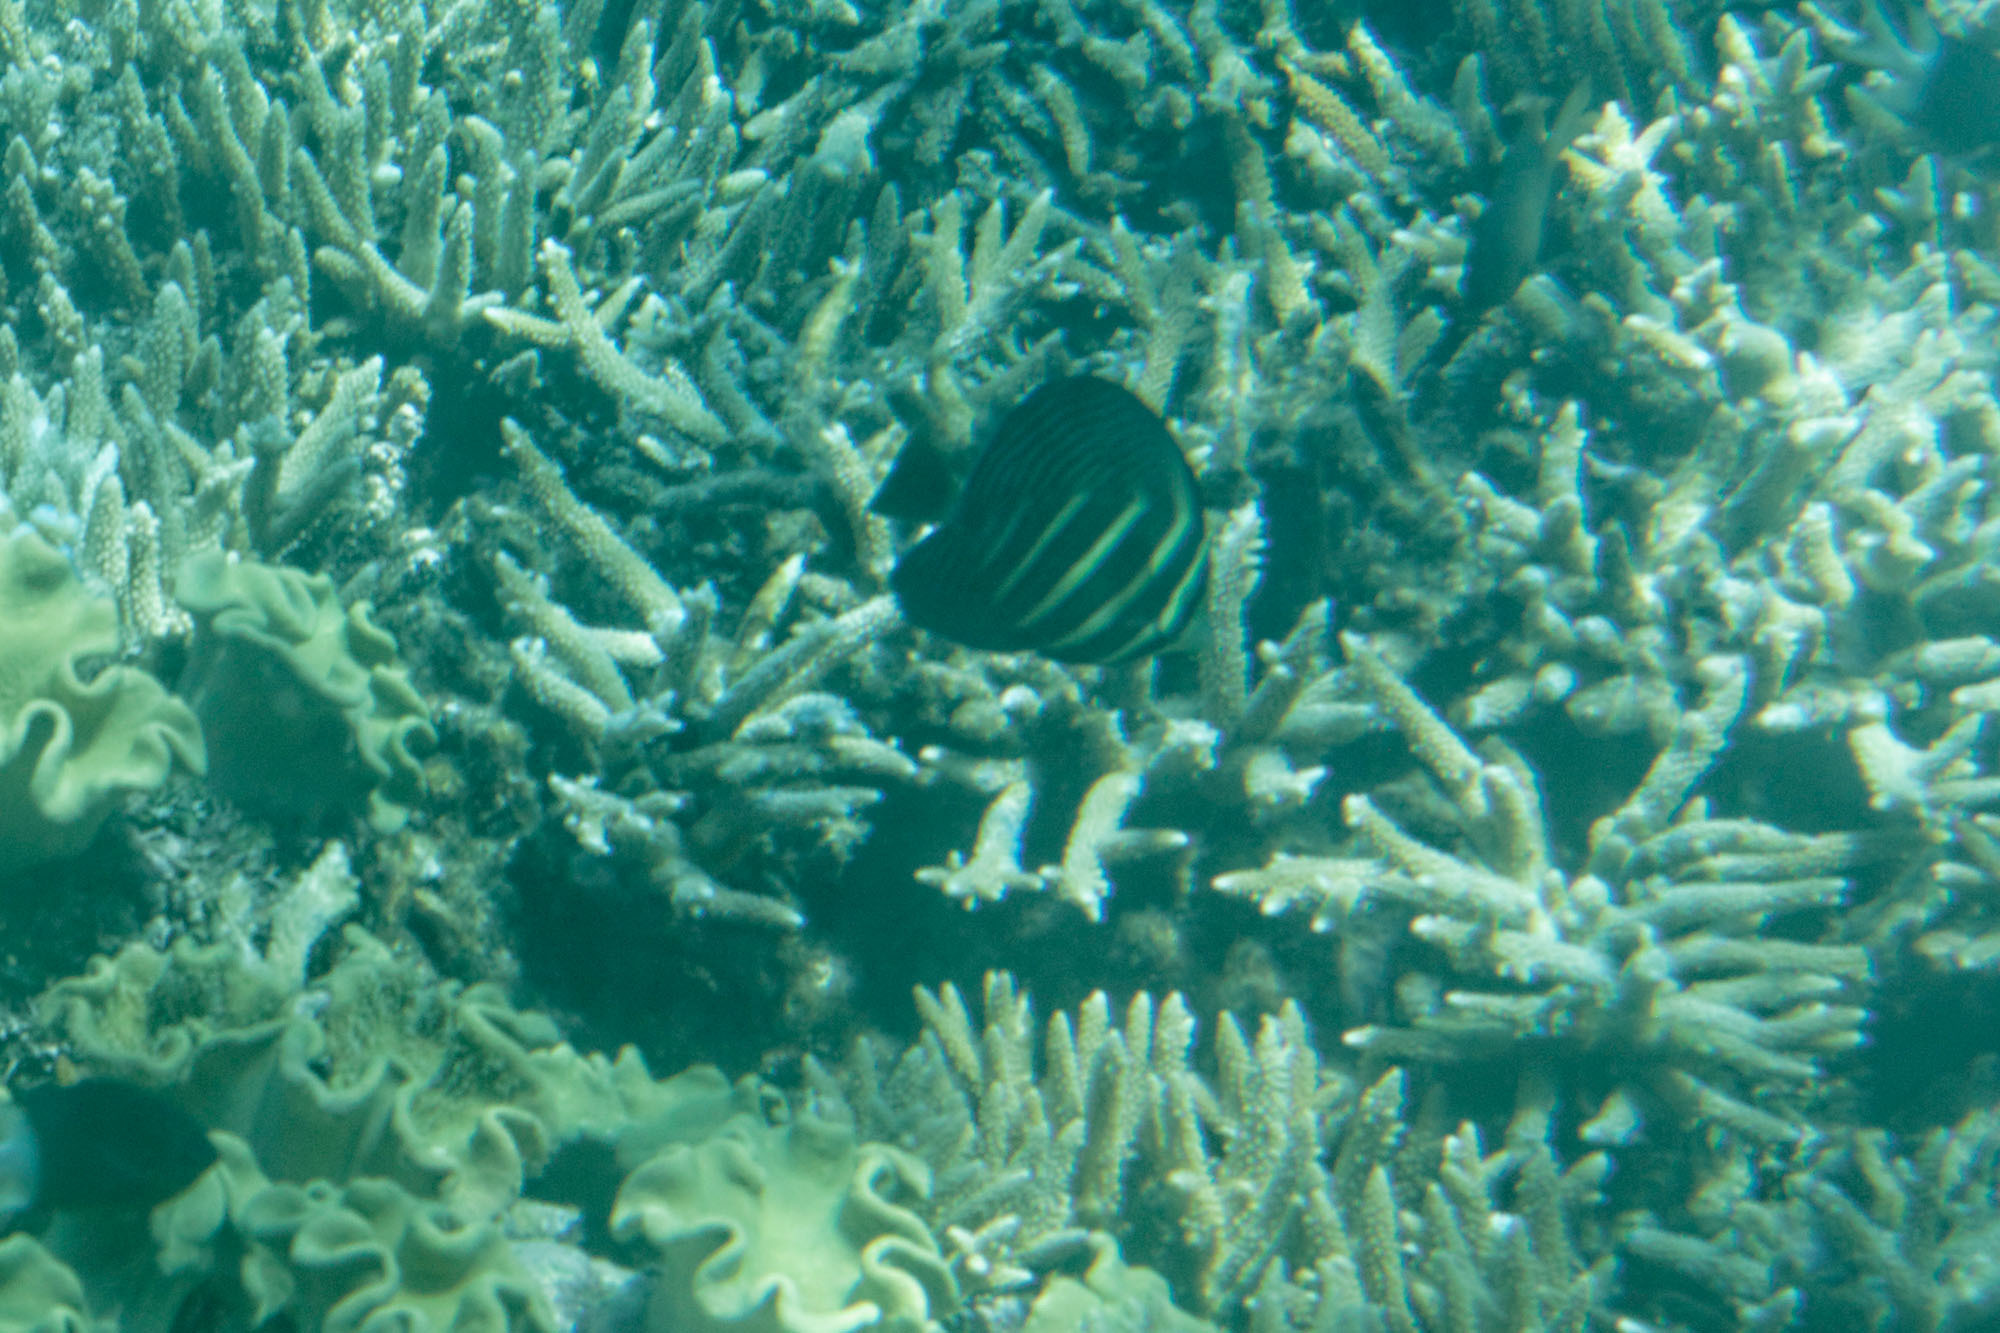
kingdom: Animalia
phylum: Chordata
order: Perciformes
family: Acanthuridae
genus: Zebrasoma
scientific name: Zebrasoma veliferum
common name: Sailfin surgeonfish
